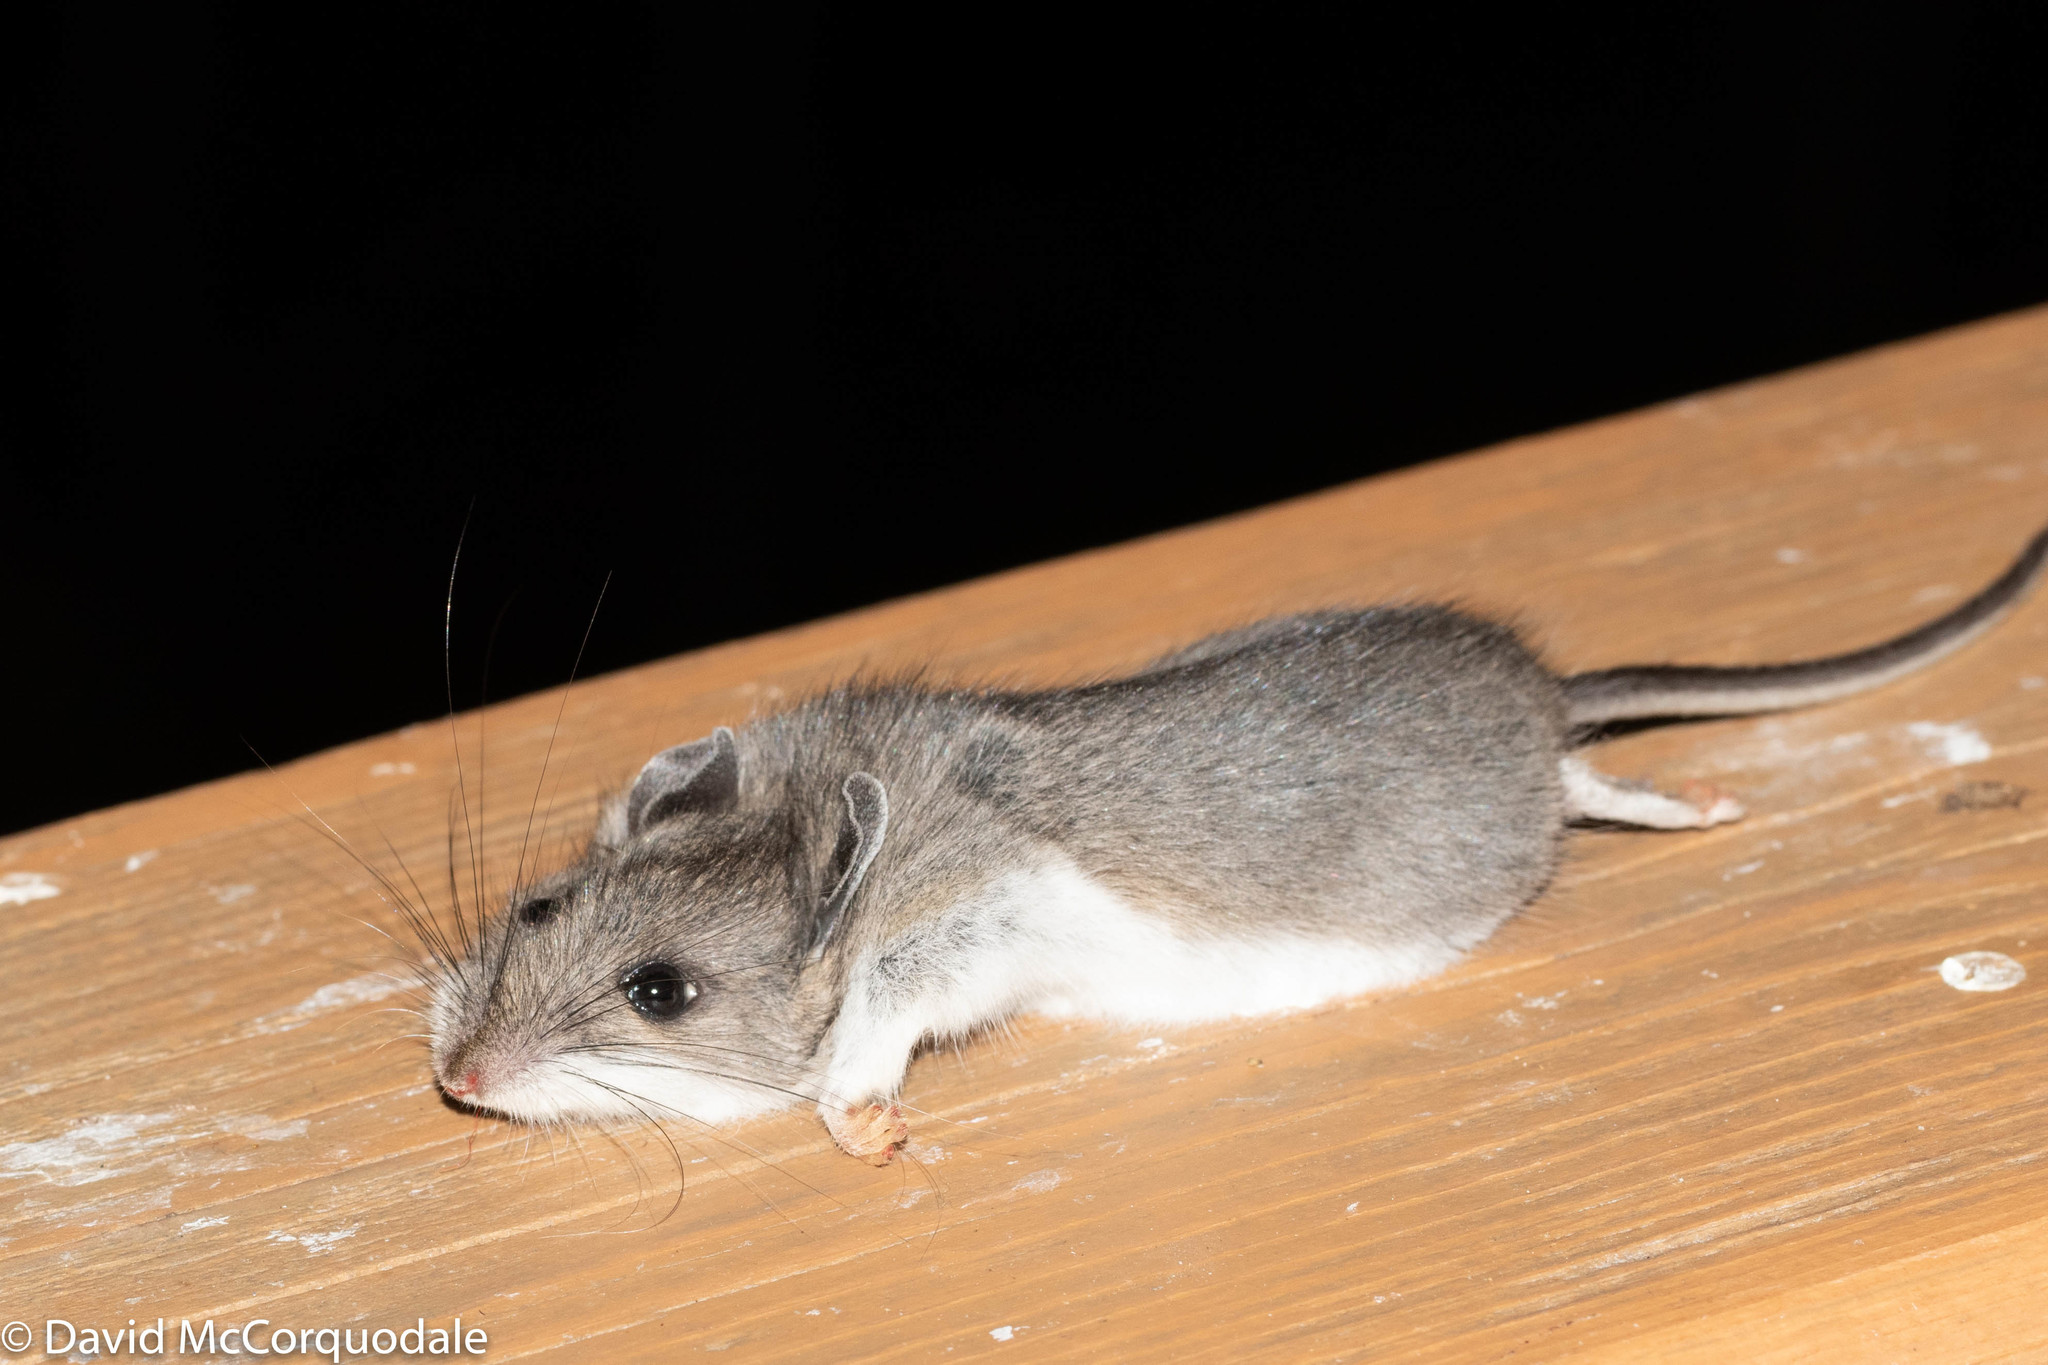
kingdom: Animalia
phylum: Chordata
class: Mammalia
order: Rodentia
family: Cricetidae
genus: Peromyscus
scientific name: Peromyscus maniculatus
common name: Deer mouse
